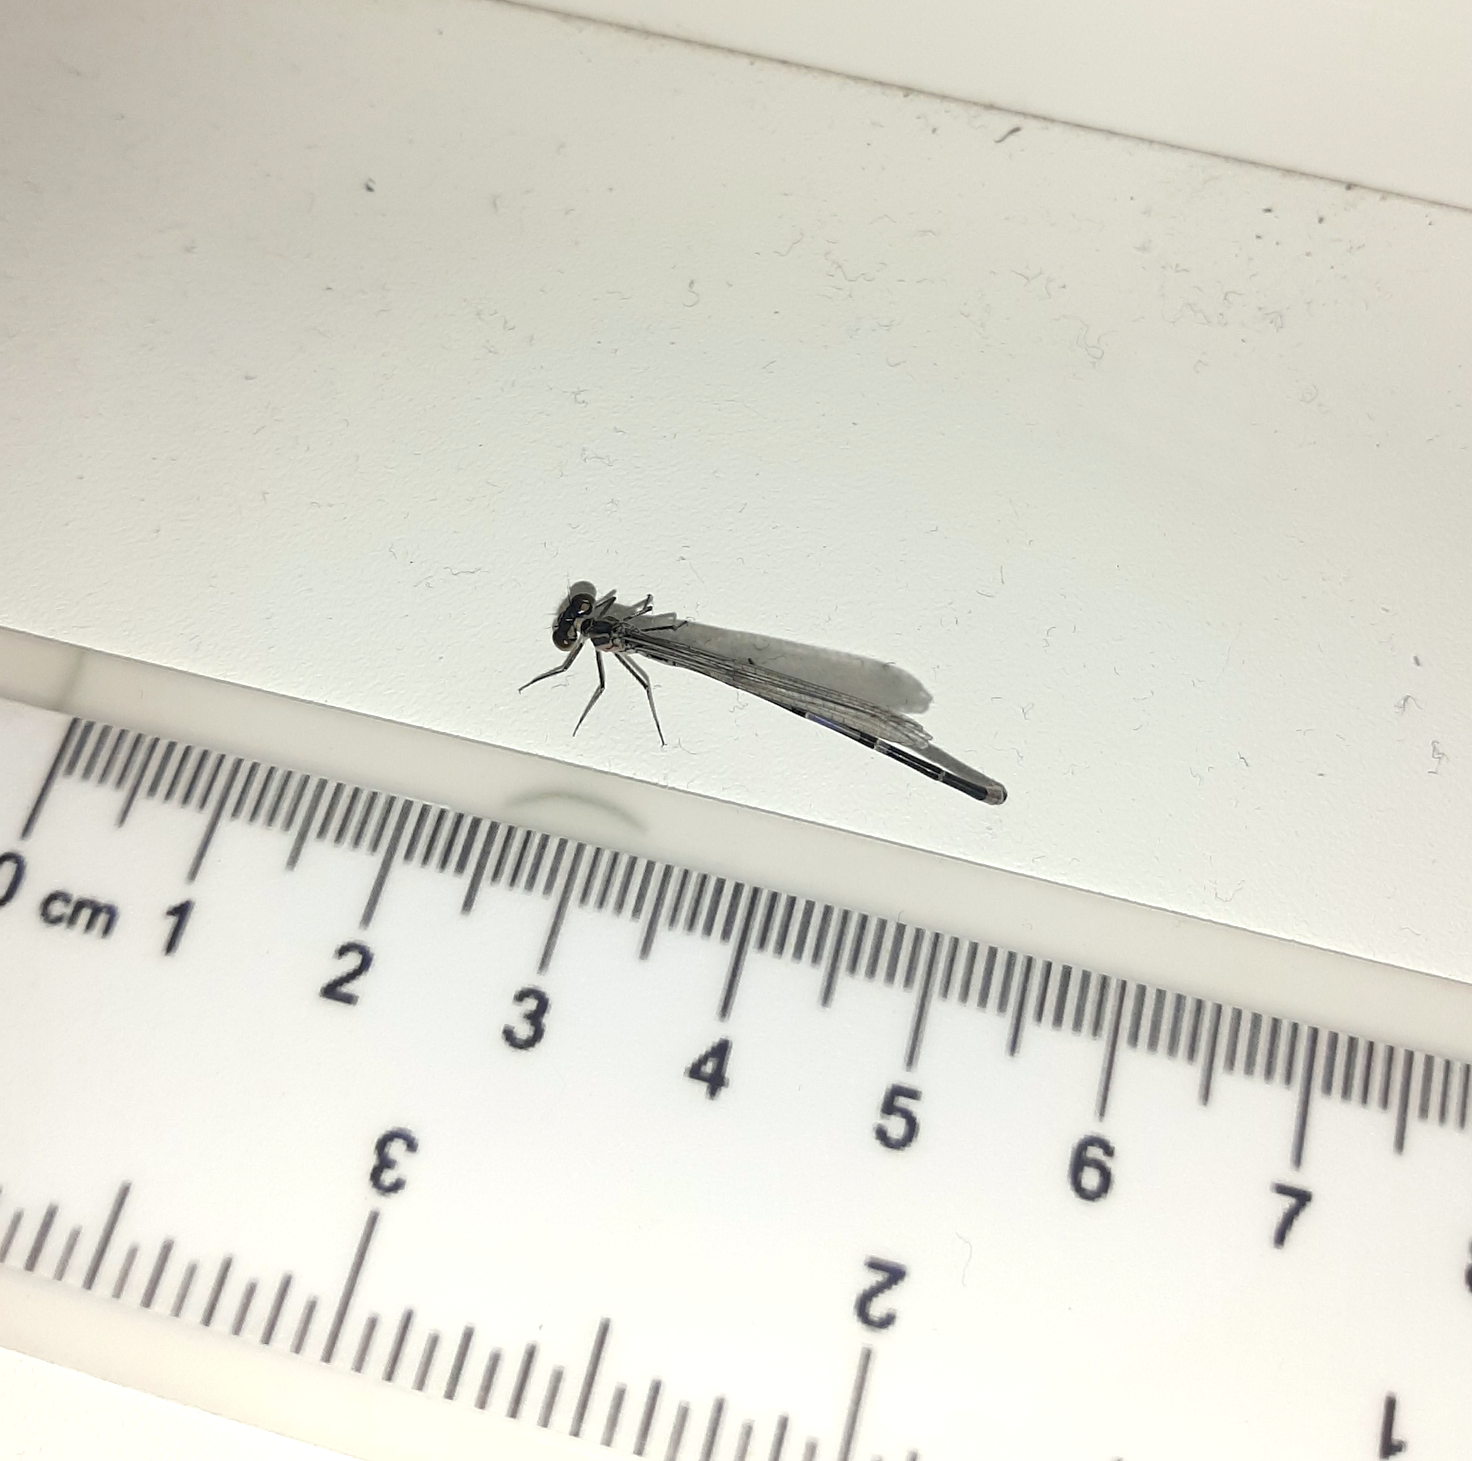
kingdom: Animalia
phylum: Arthropoda
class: Insecta
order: Odonata
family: Coenagrionidae
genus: Coenagrion
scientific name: Coenagrion puella
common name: Azure damselfly
